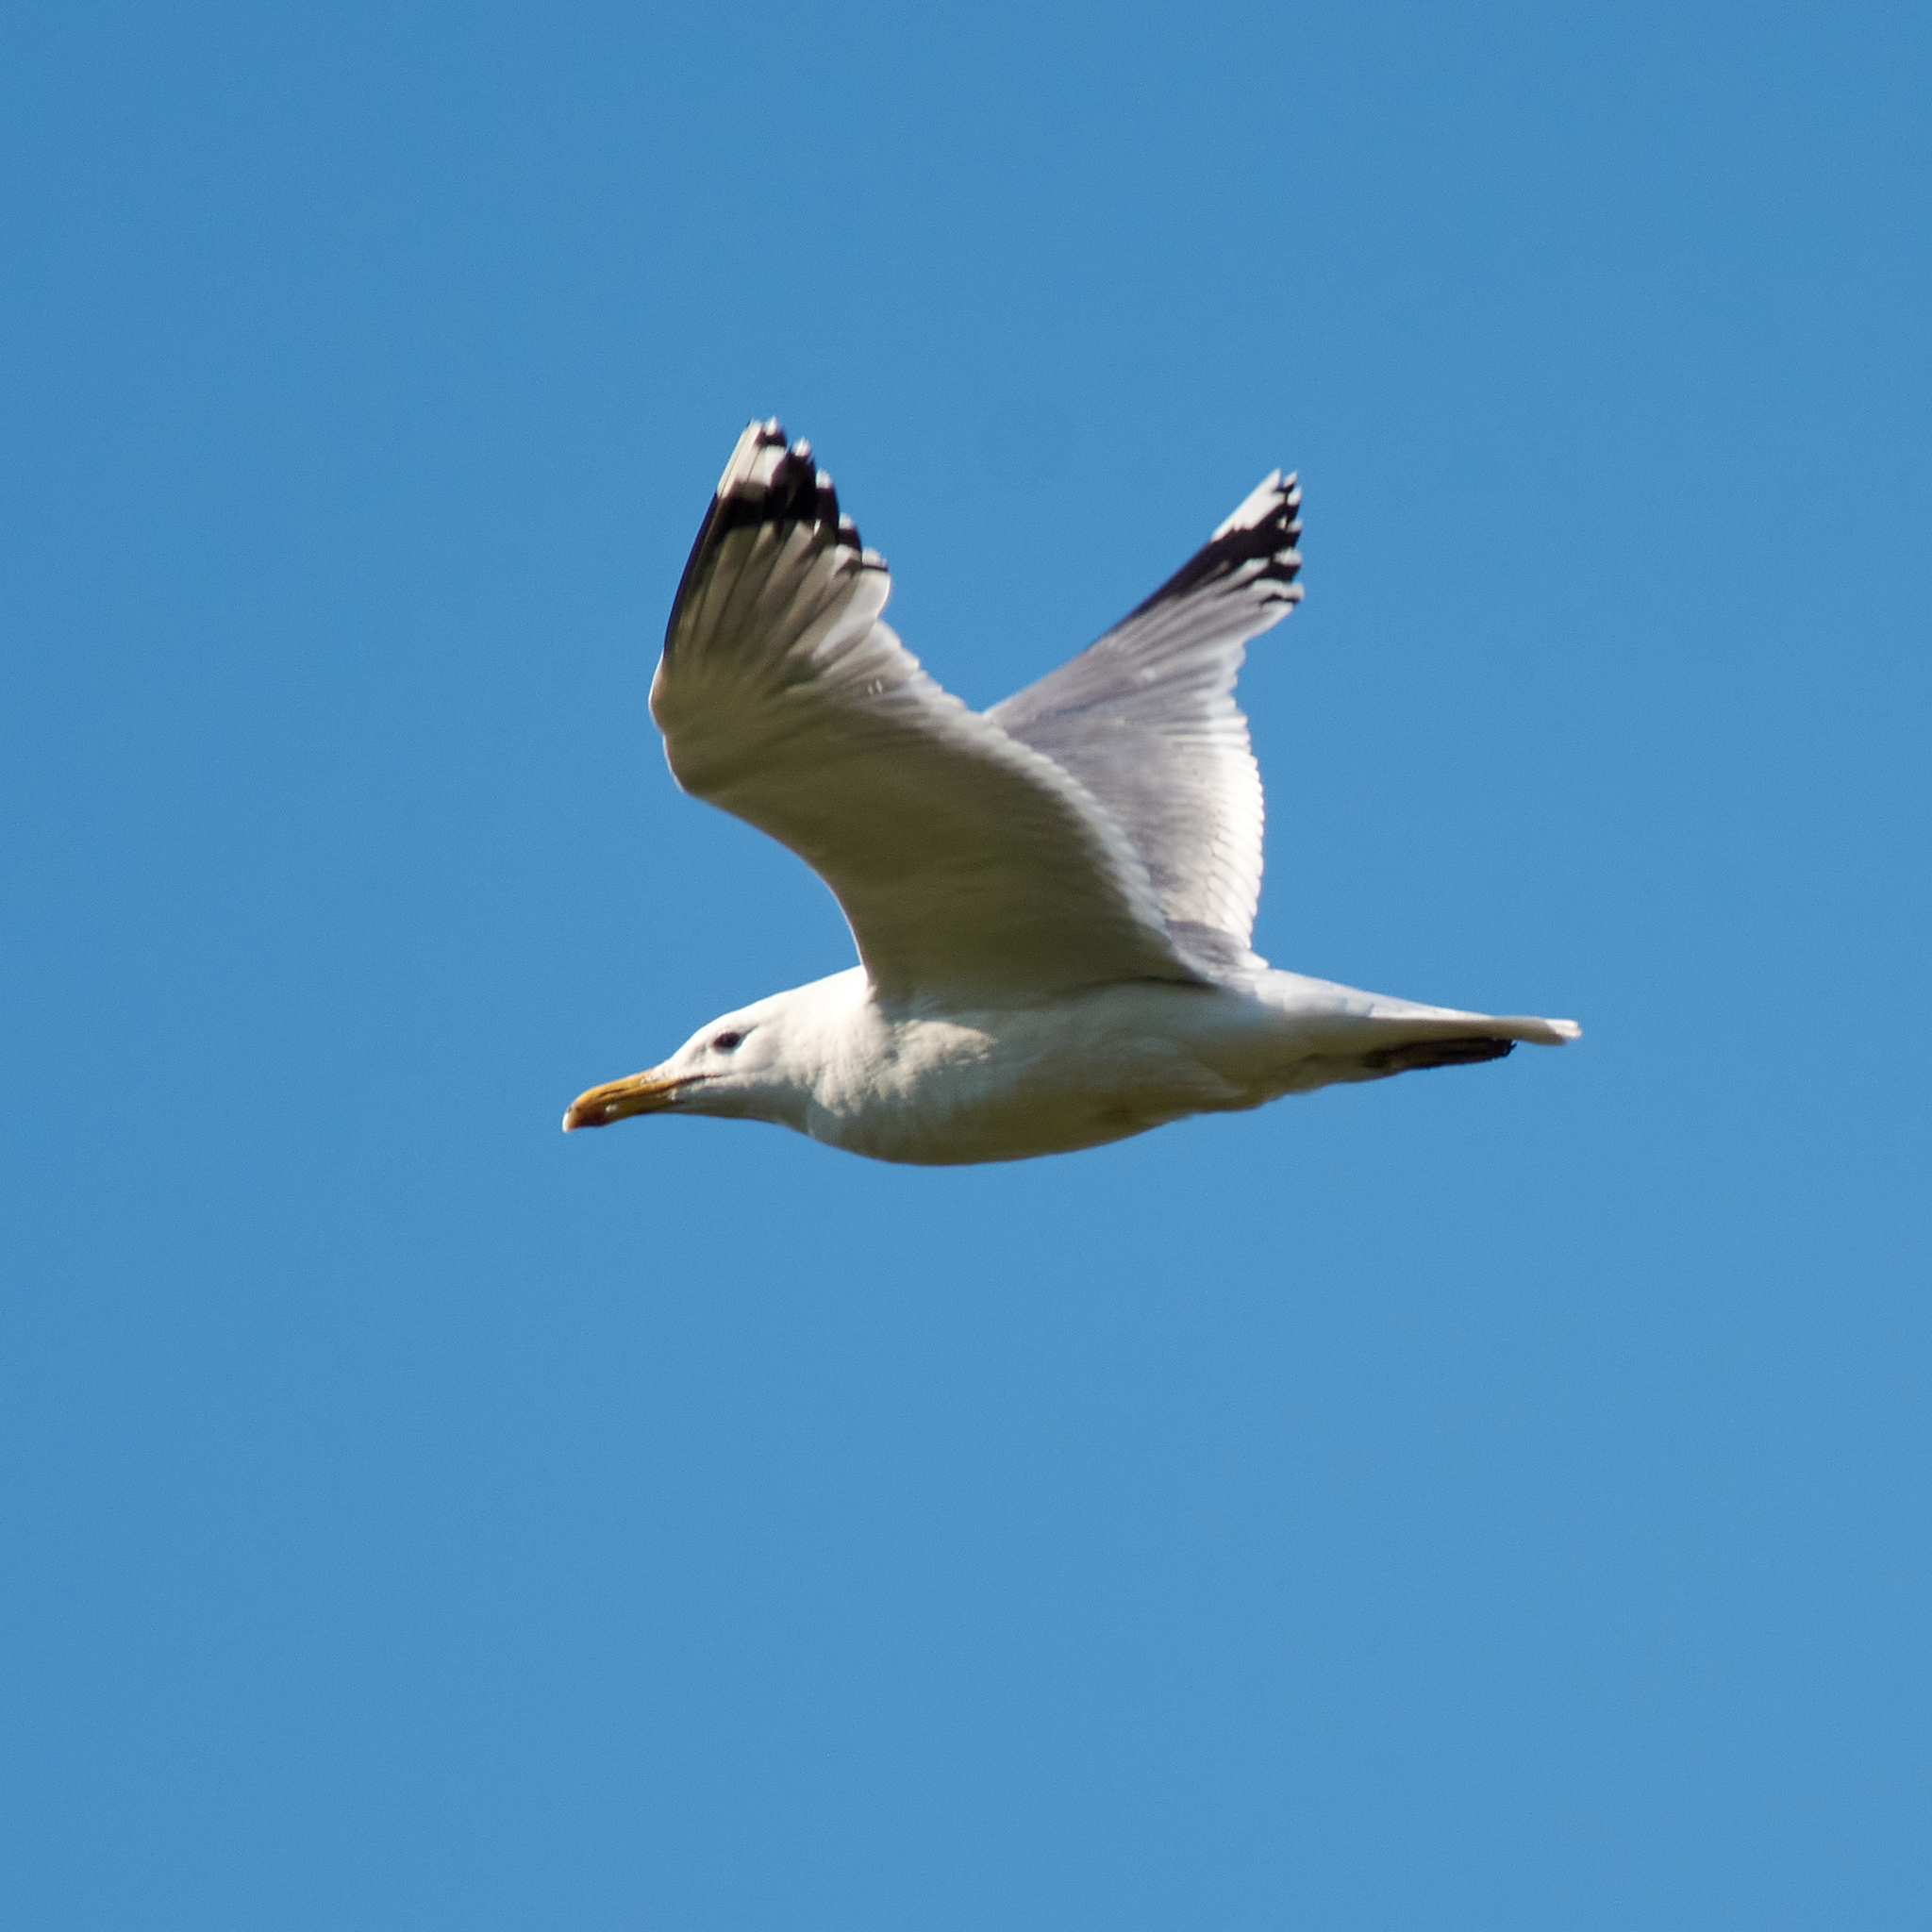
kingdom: Animalia
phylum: Chordata
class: Aves
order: Charadriiformes
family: Laridae
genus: Larus
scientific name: Larus cachinnans
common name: Caspian gull
